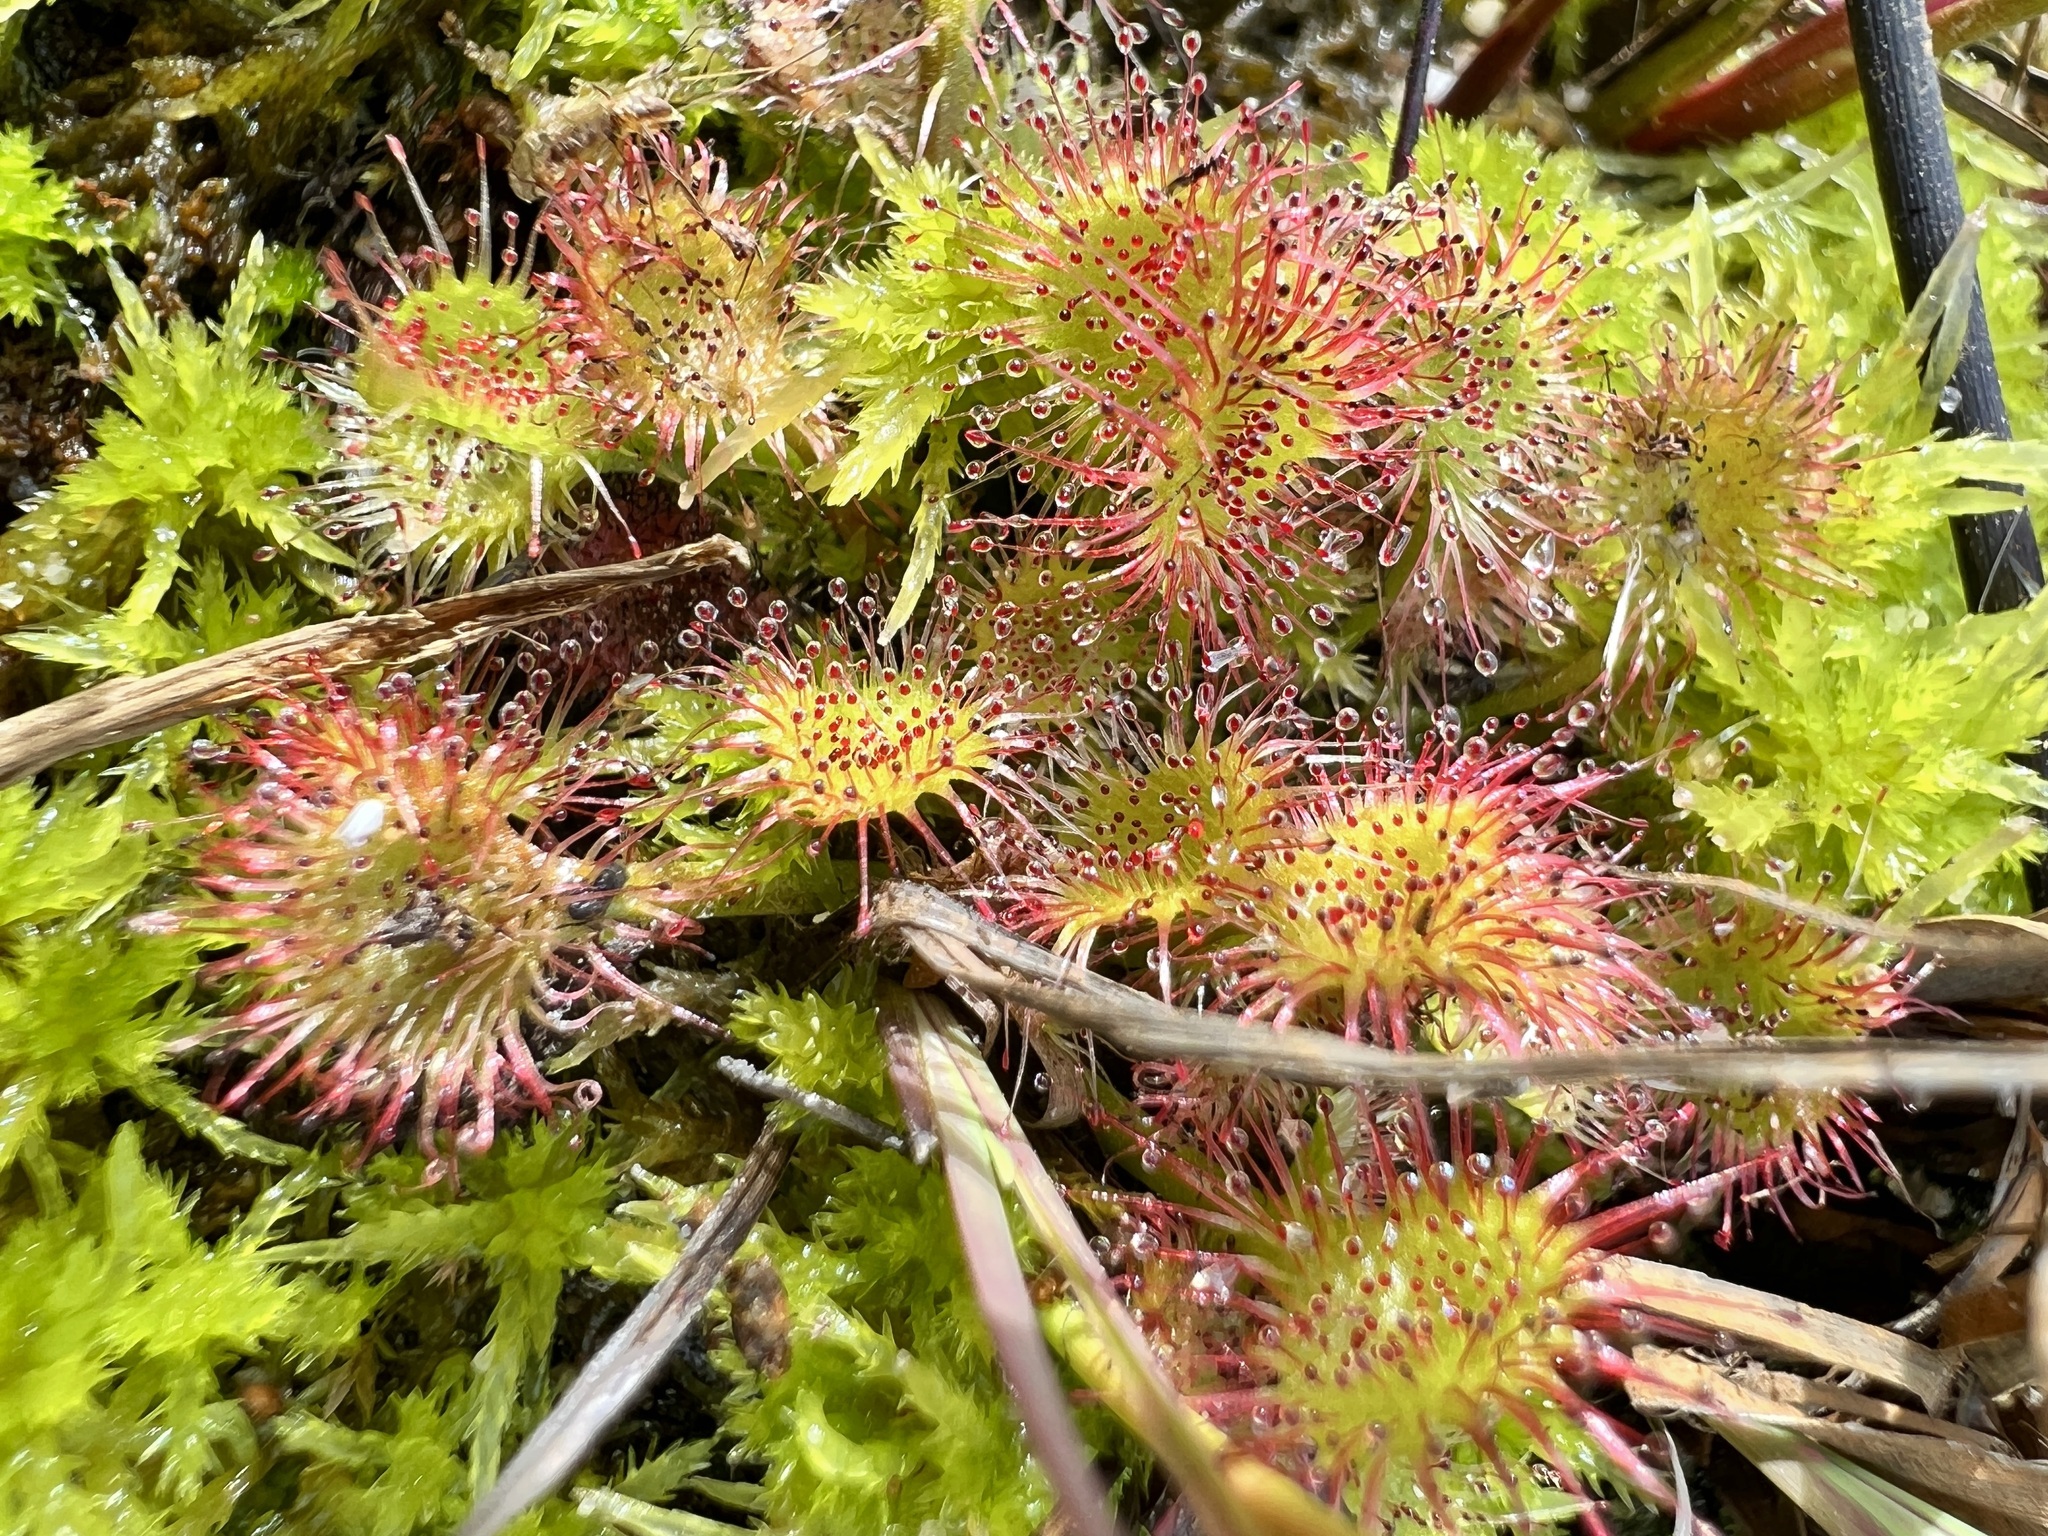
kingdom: Plantae
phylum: Tracheophyta
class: Magnoliopsida
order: Caryophyllales
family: Droseraceae
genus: Drosera
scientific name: Drosera rotundifolia
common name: Round-leaved sundew
